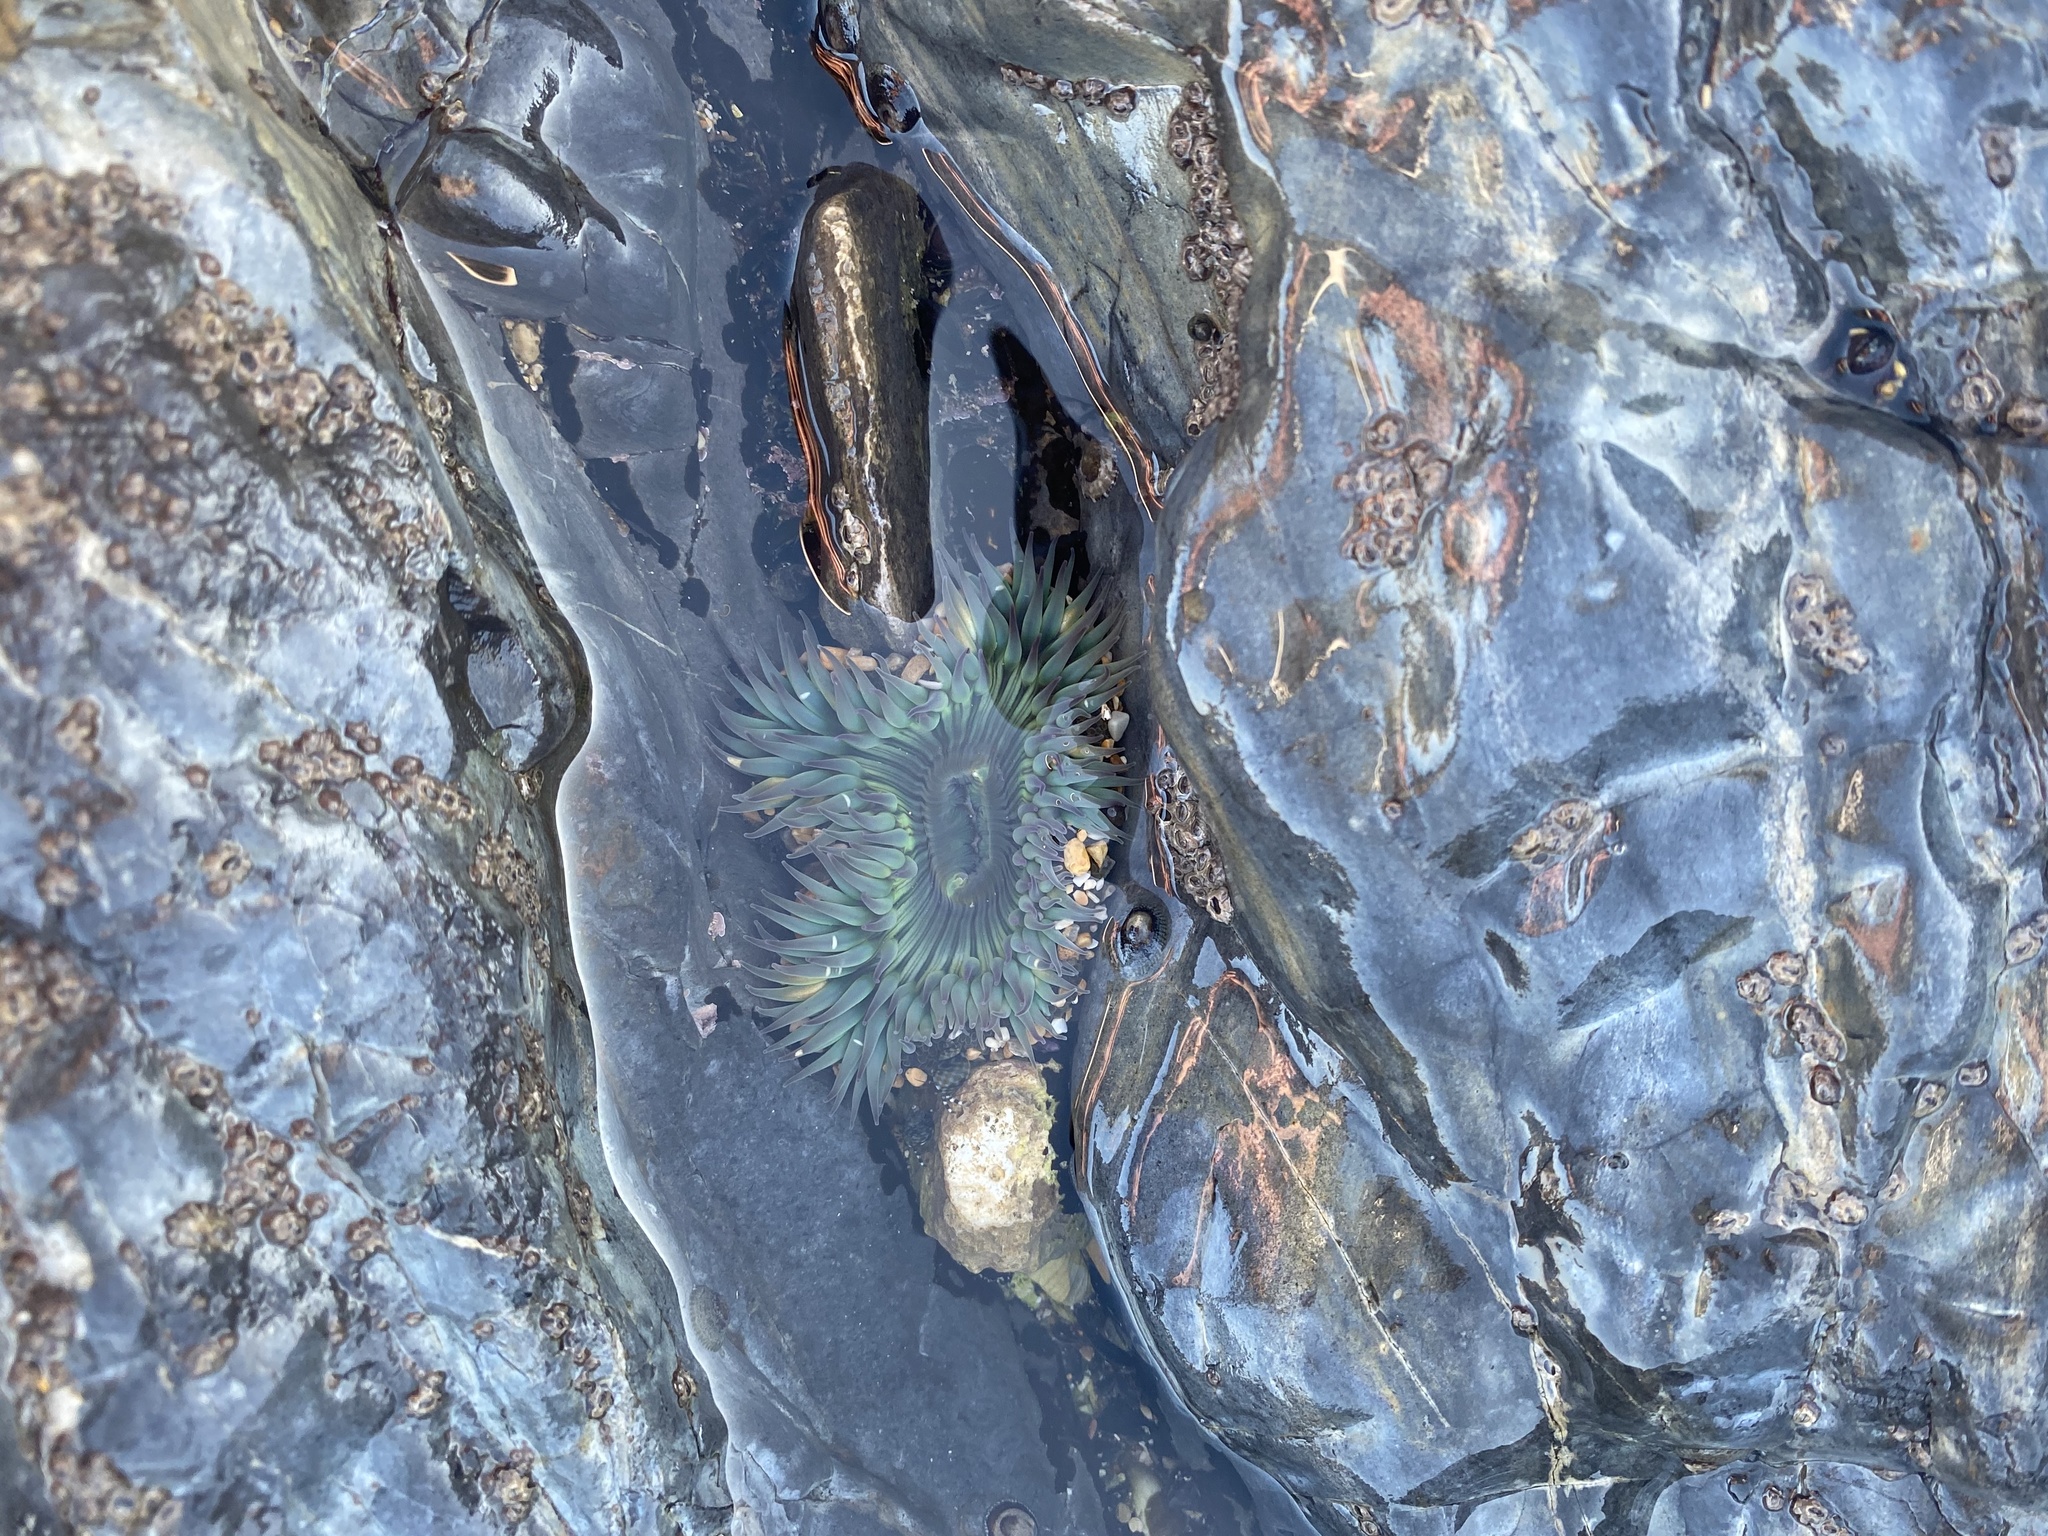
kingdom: Animalia
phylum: Cnidaria
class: Anthozoa
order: Actiniaria
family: Actiniidae
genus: Anthopleura
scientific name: Anthopleura sola
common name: Sun anemone
